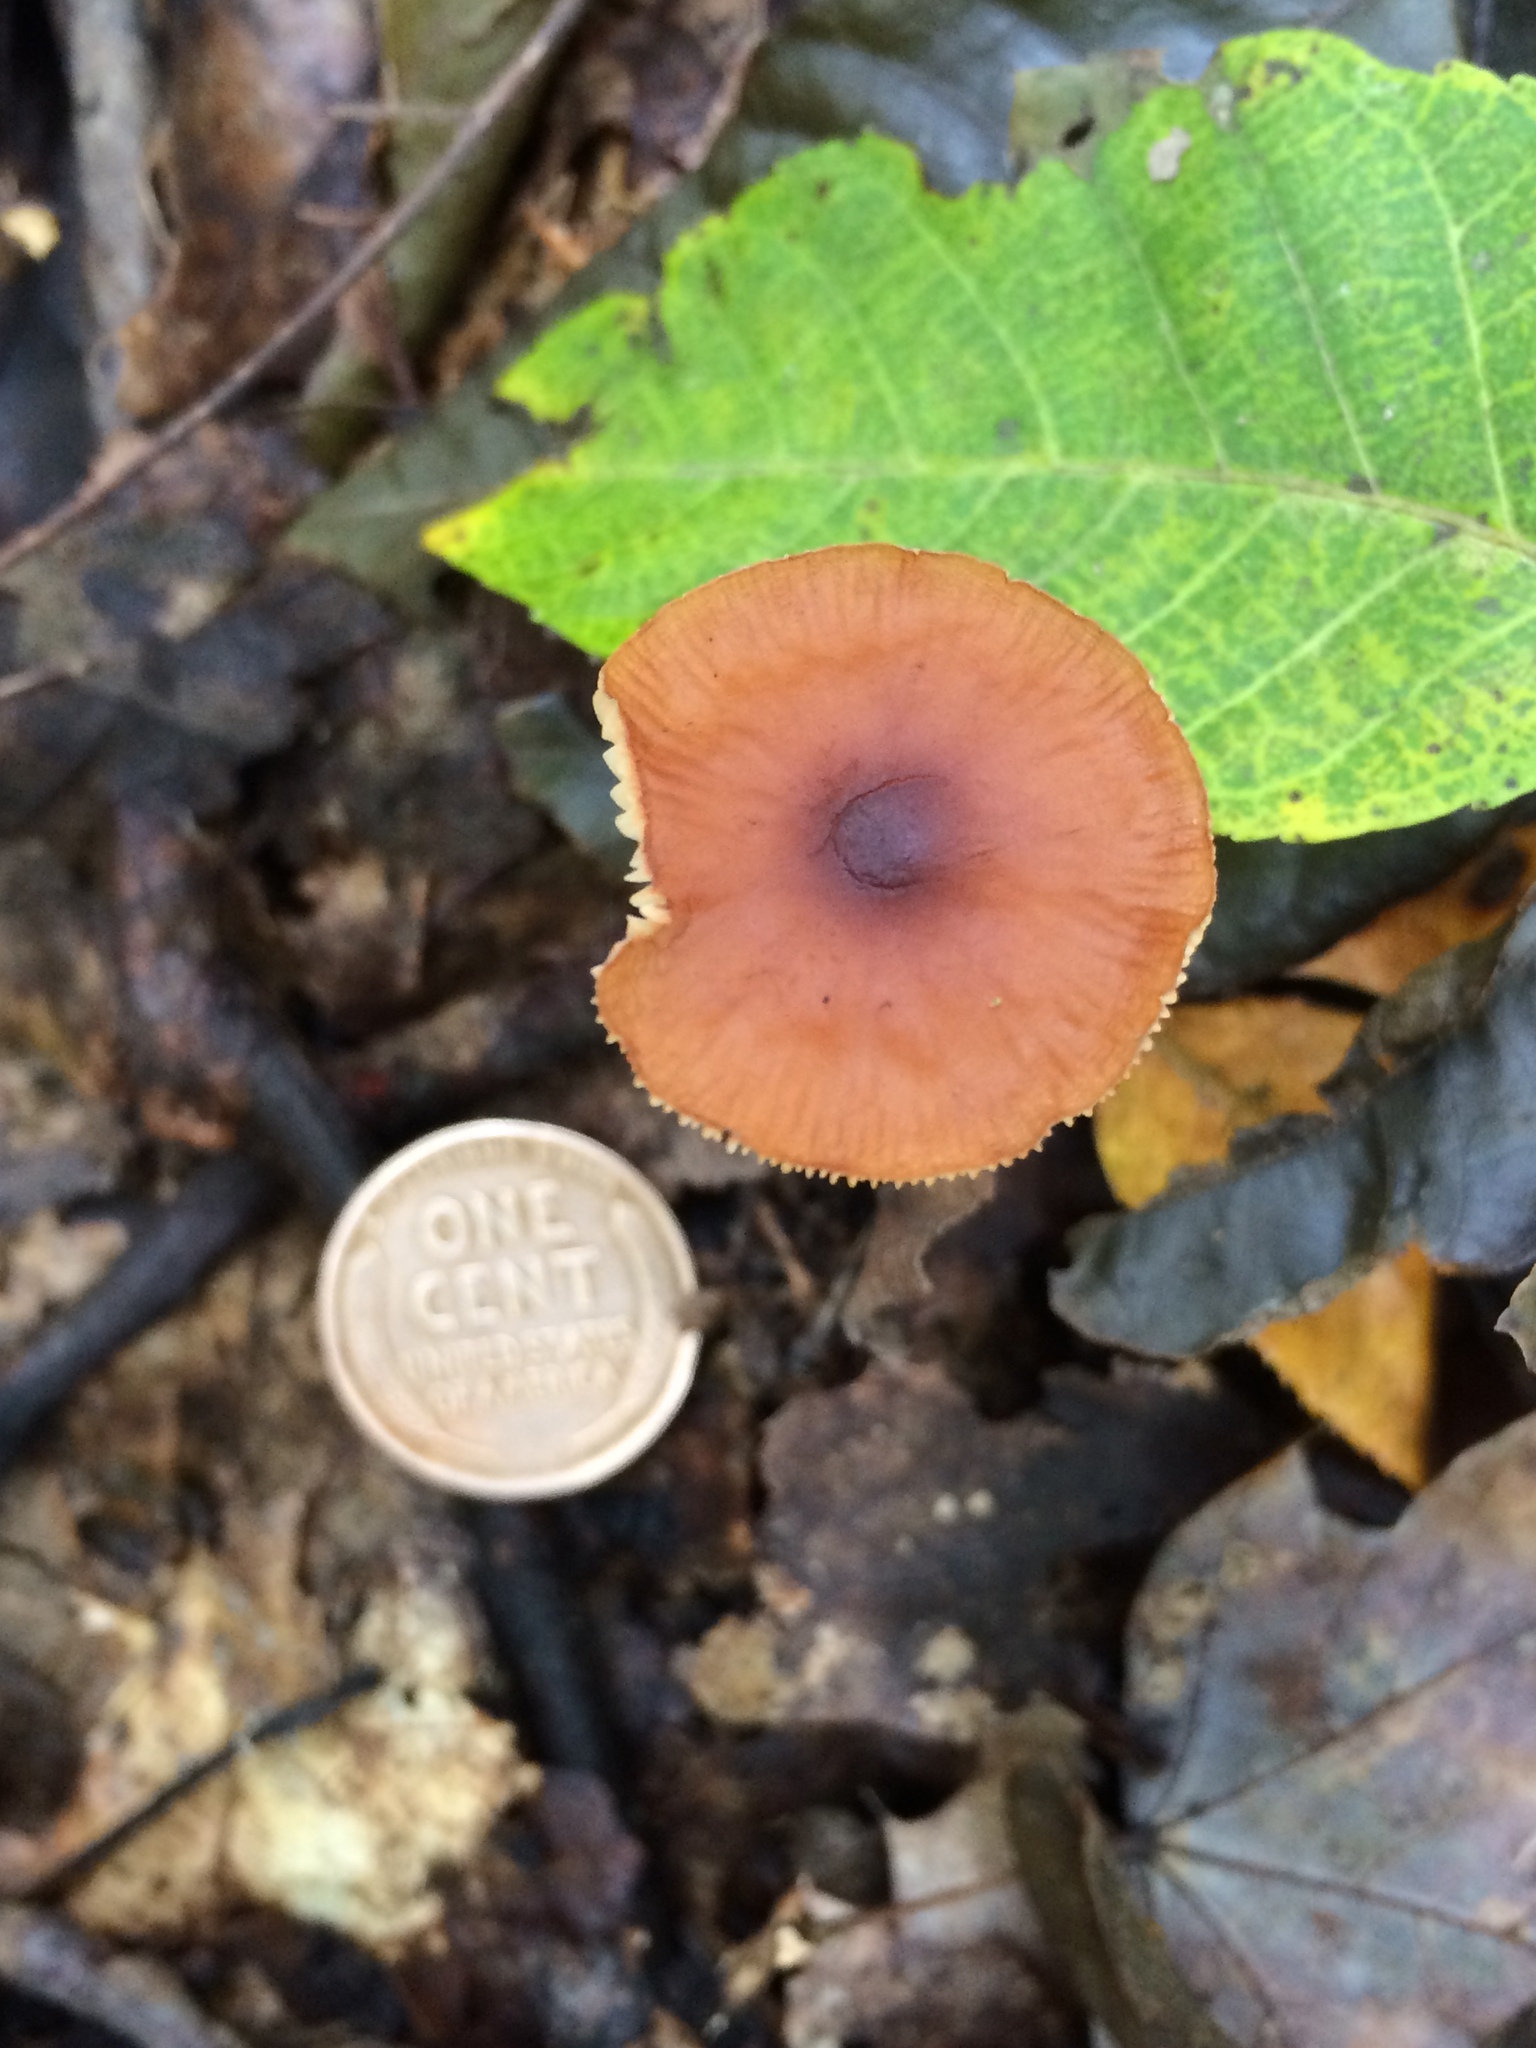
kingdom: Fungi
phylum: Basidiomycota
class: Agaricomycetes
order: Agaricales
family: Physalacriaceae
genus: Rhizomarasmius
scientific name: Rhizomarasmius pyrrhocephalus
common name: Hairy long stem marasmius
